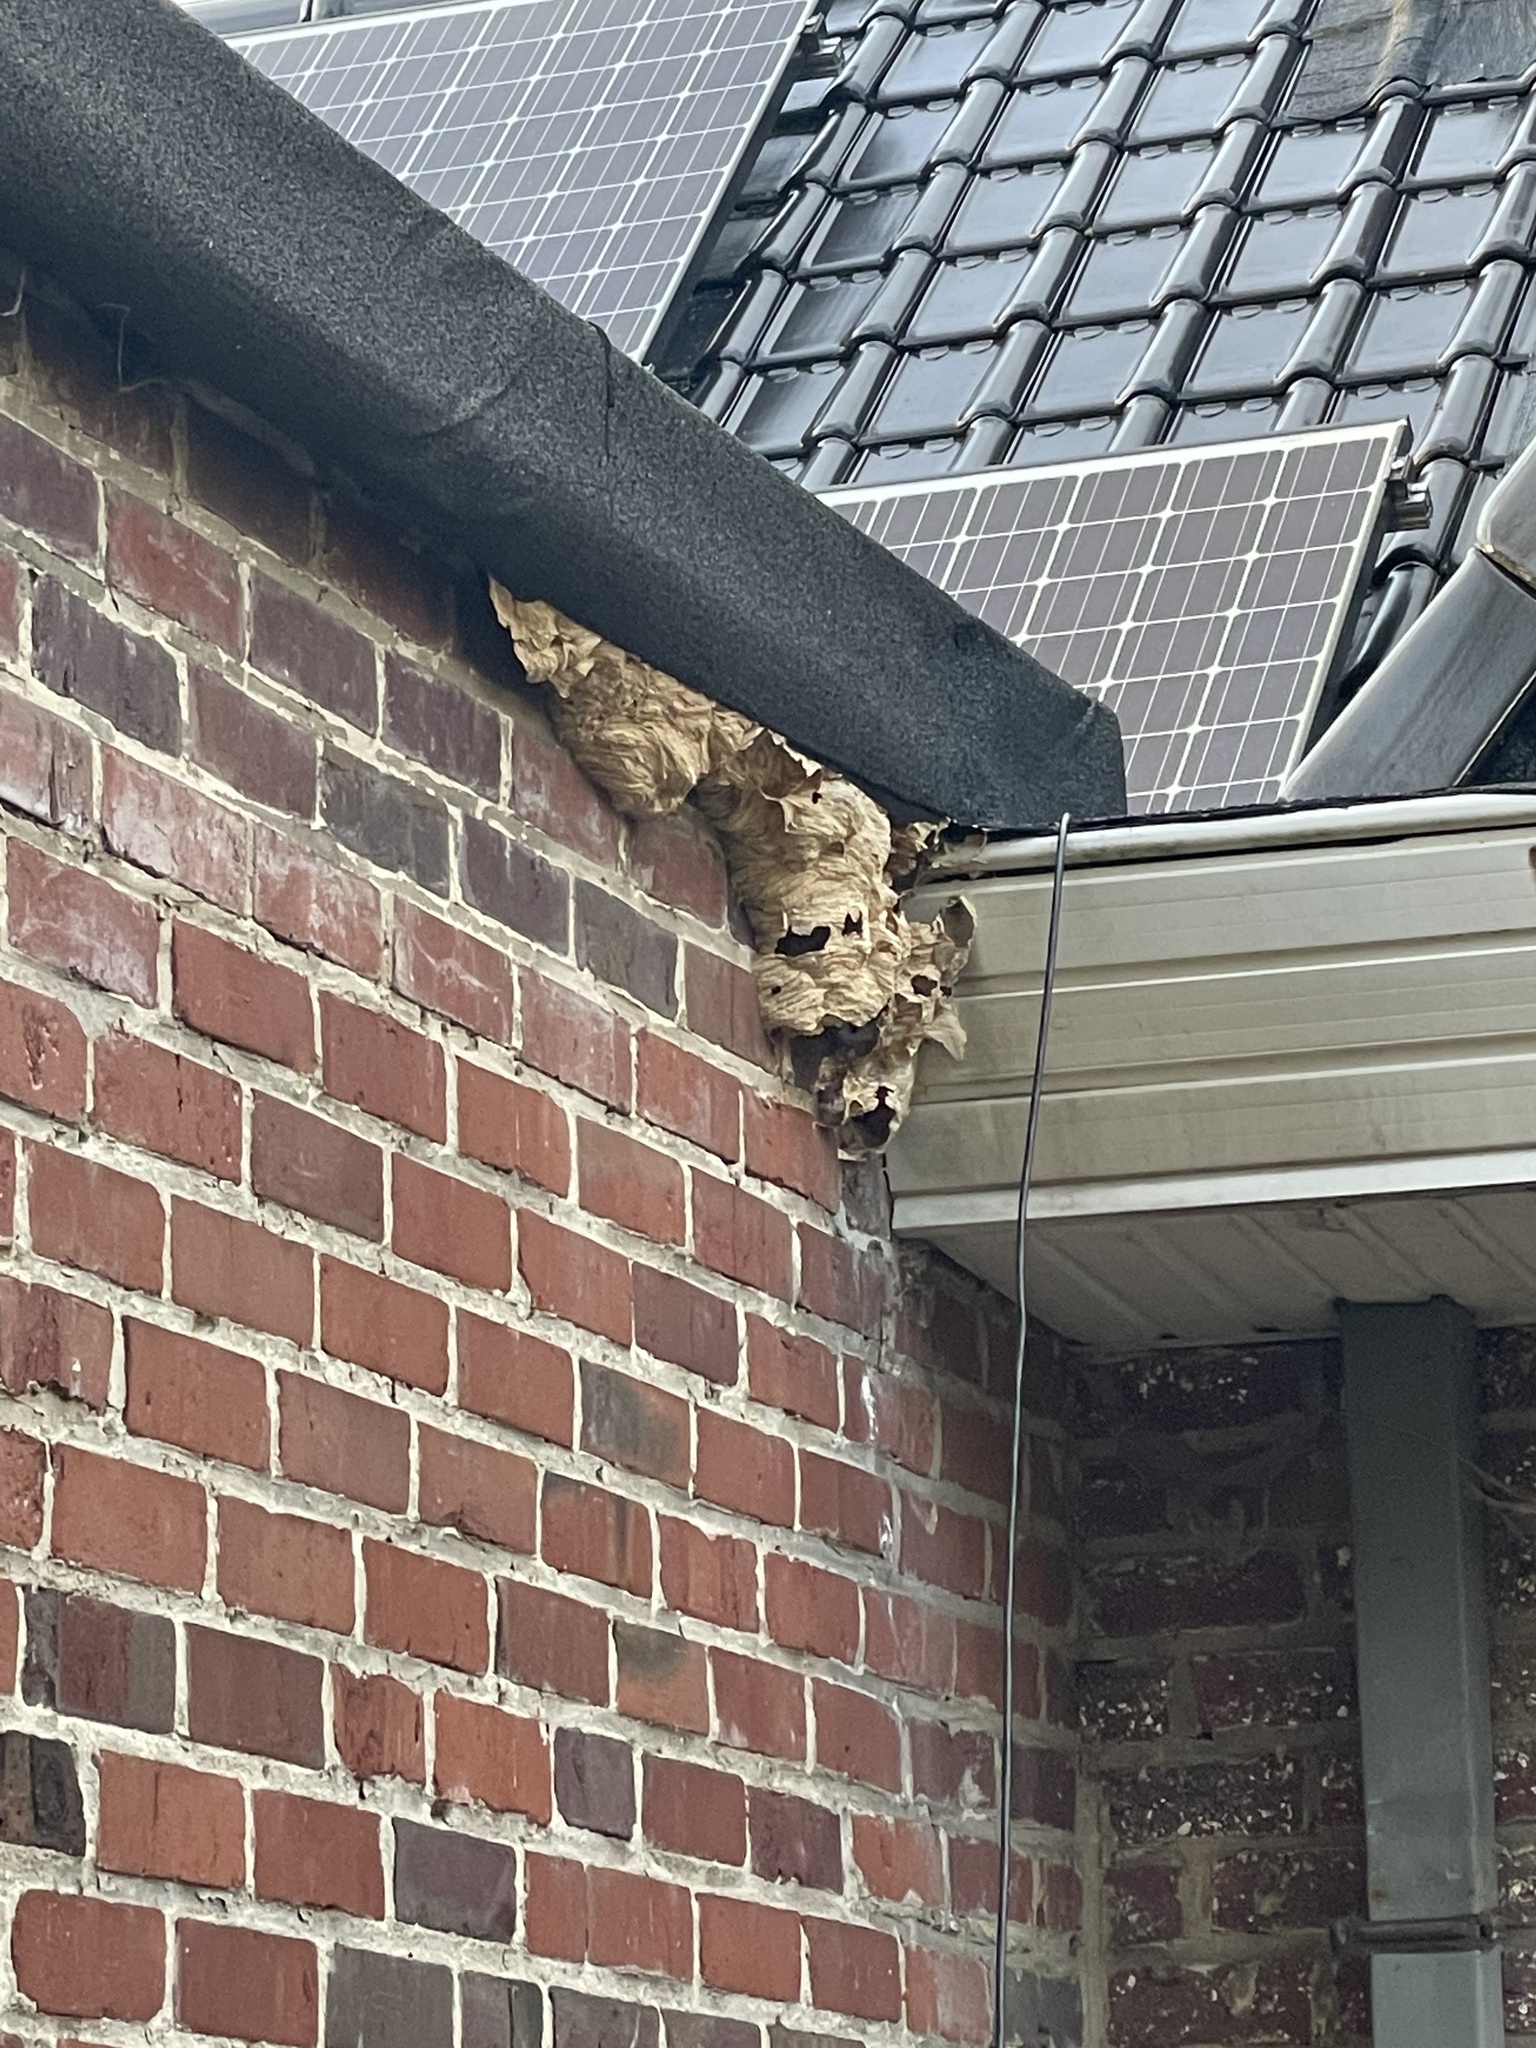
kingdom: Animalia
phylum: Arthropoda
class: Insecta
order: Hymenoptera
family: Vespidae
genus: Vespa
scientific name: Vespa crabro
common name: Hornet
